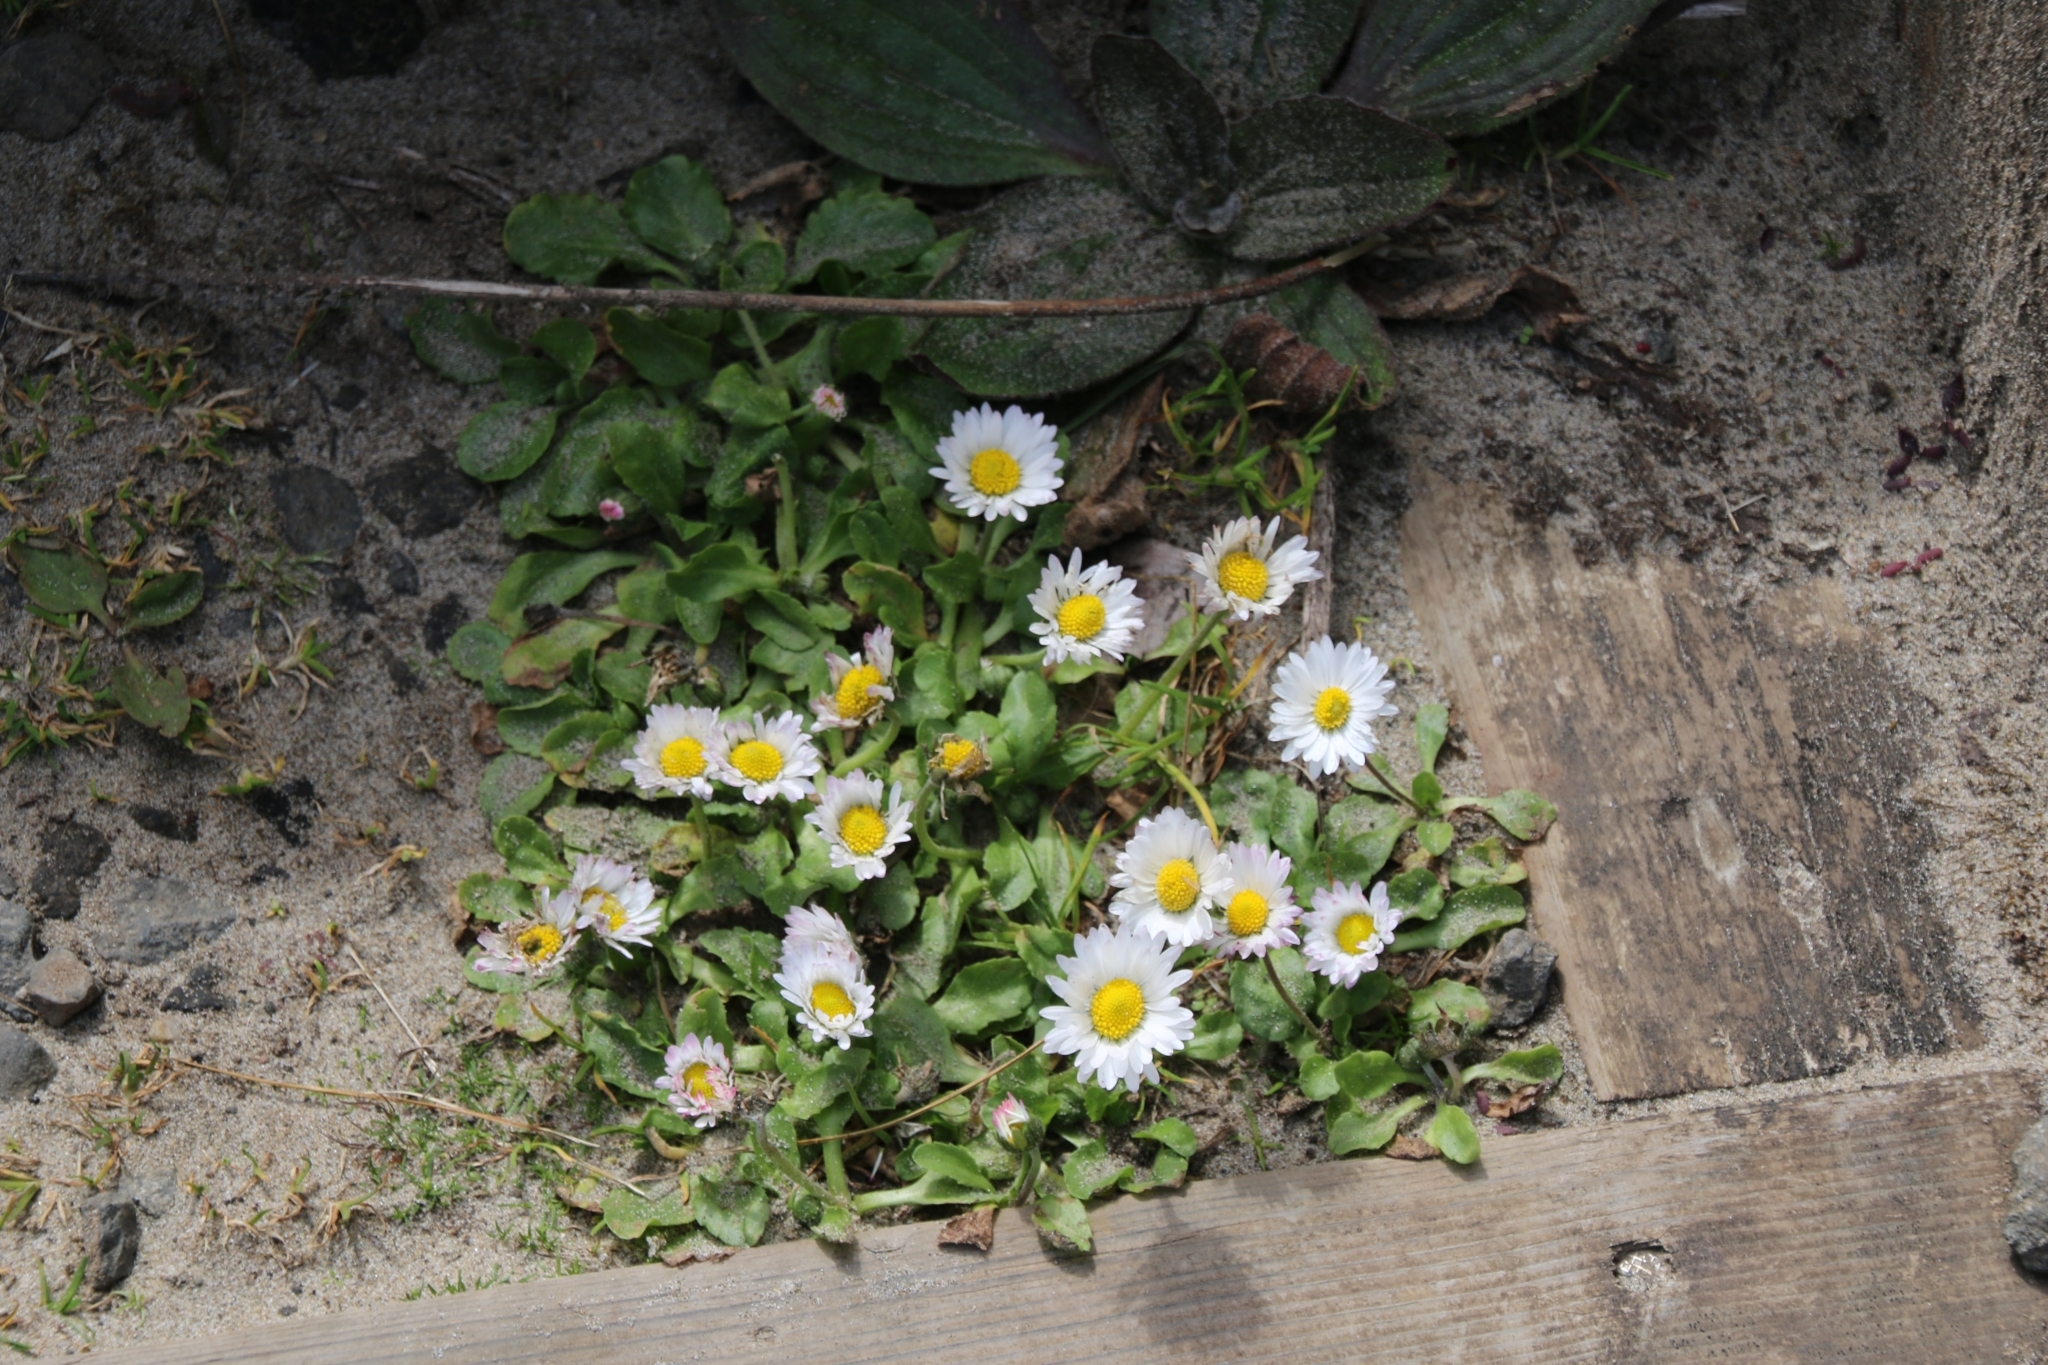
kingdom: Plantae
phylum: Tracheophyta
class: Magnoliopsida
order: Asterales
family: Asteraceae
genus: Bellis
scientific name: Bellis perennis
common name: Lawndaisy
